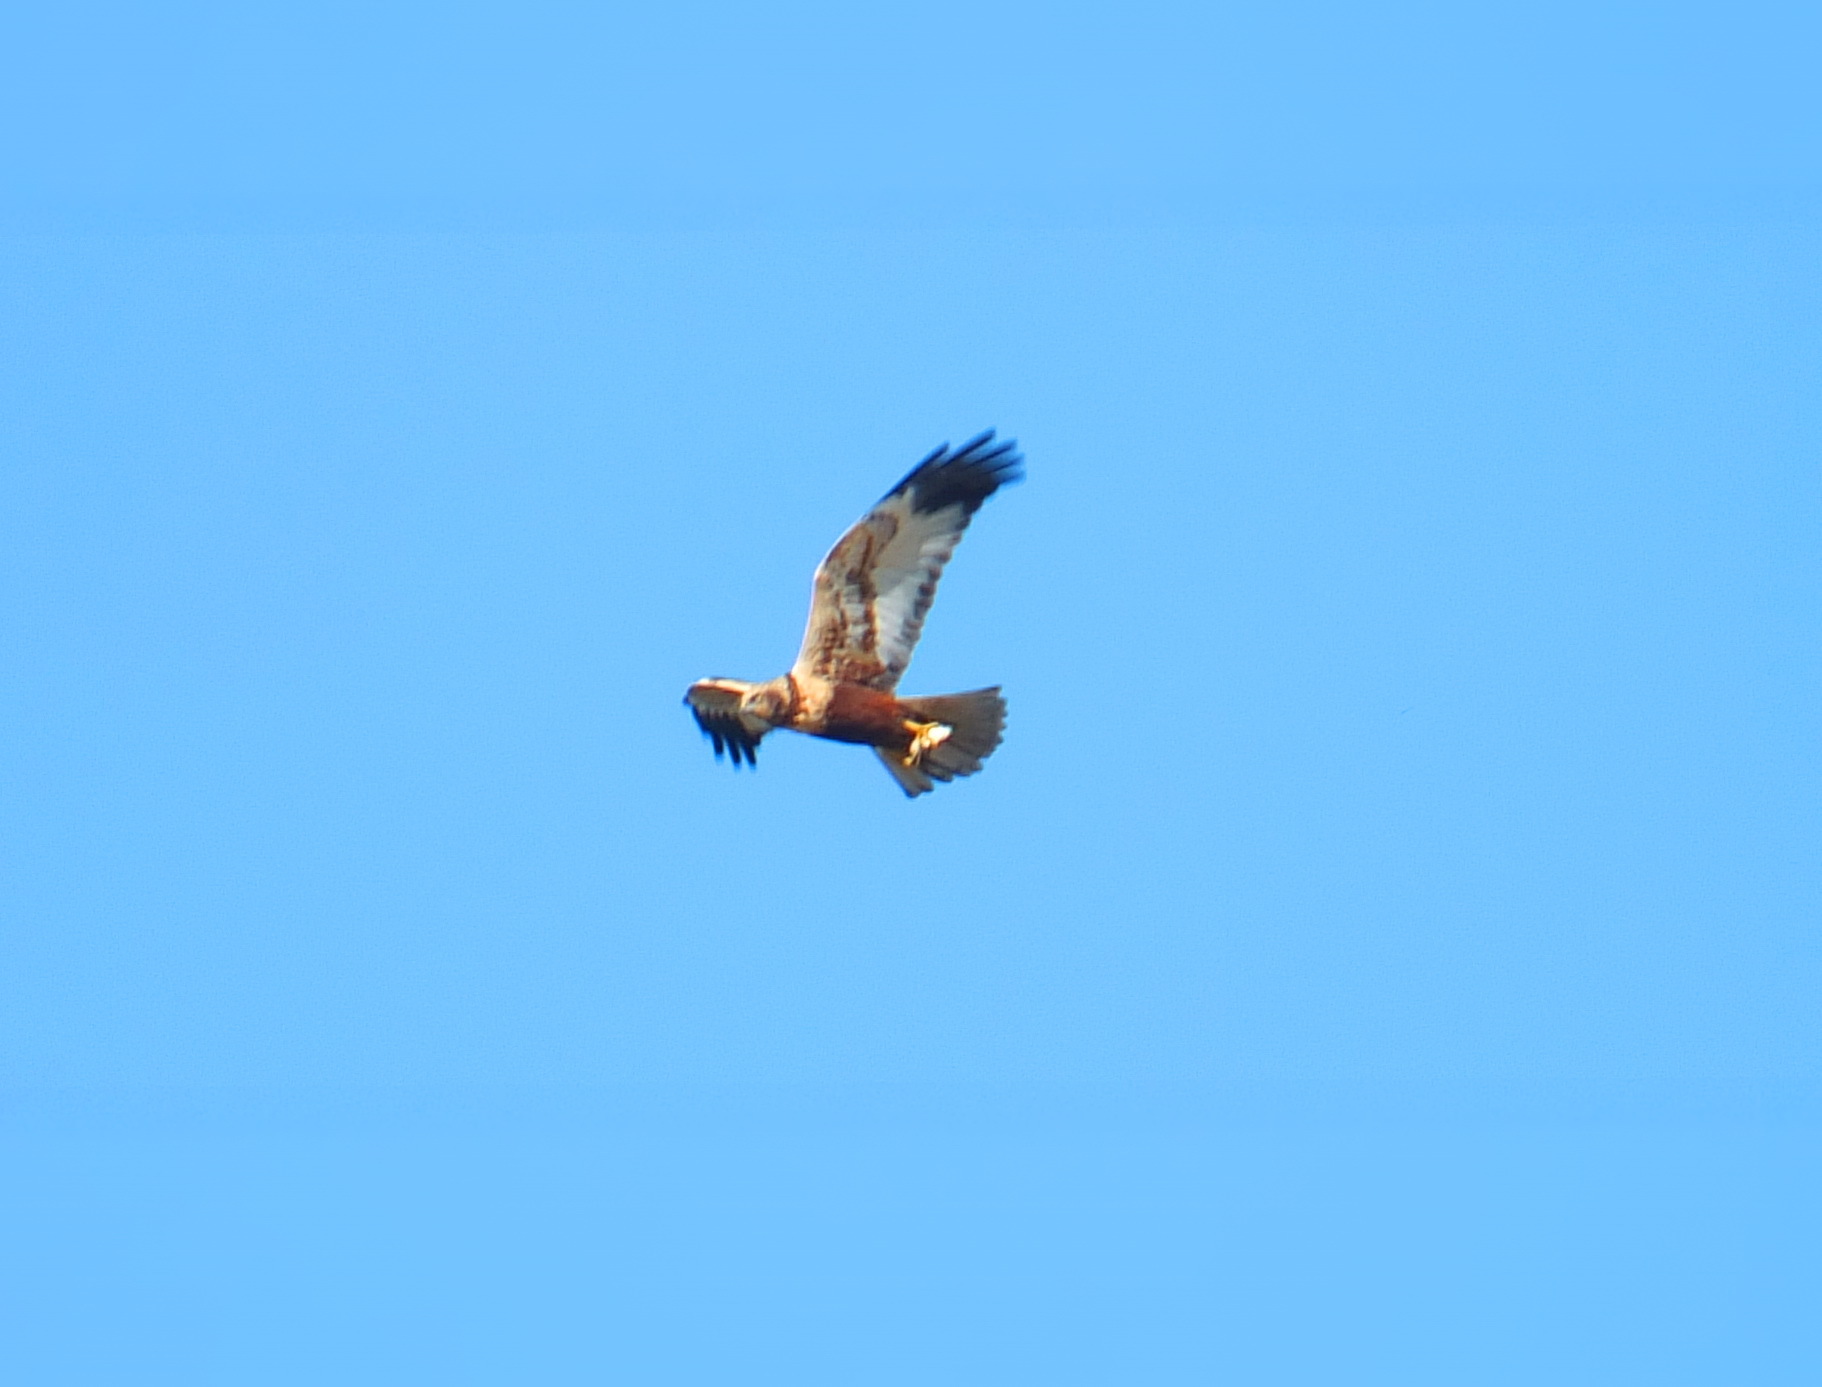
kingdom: Animalia
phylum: Chordata
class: Aves
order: Accipitriformes
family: Accipitridae
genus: Circus
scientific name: Circus aeruginosus
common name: Western marsh harrier
